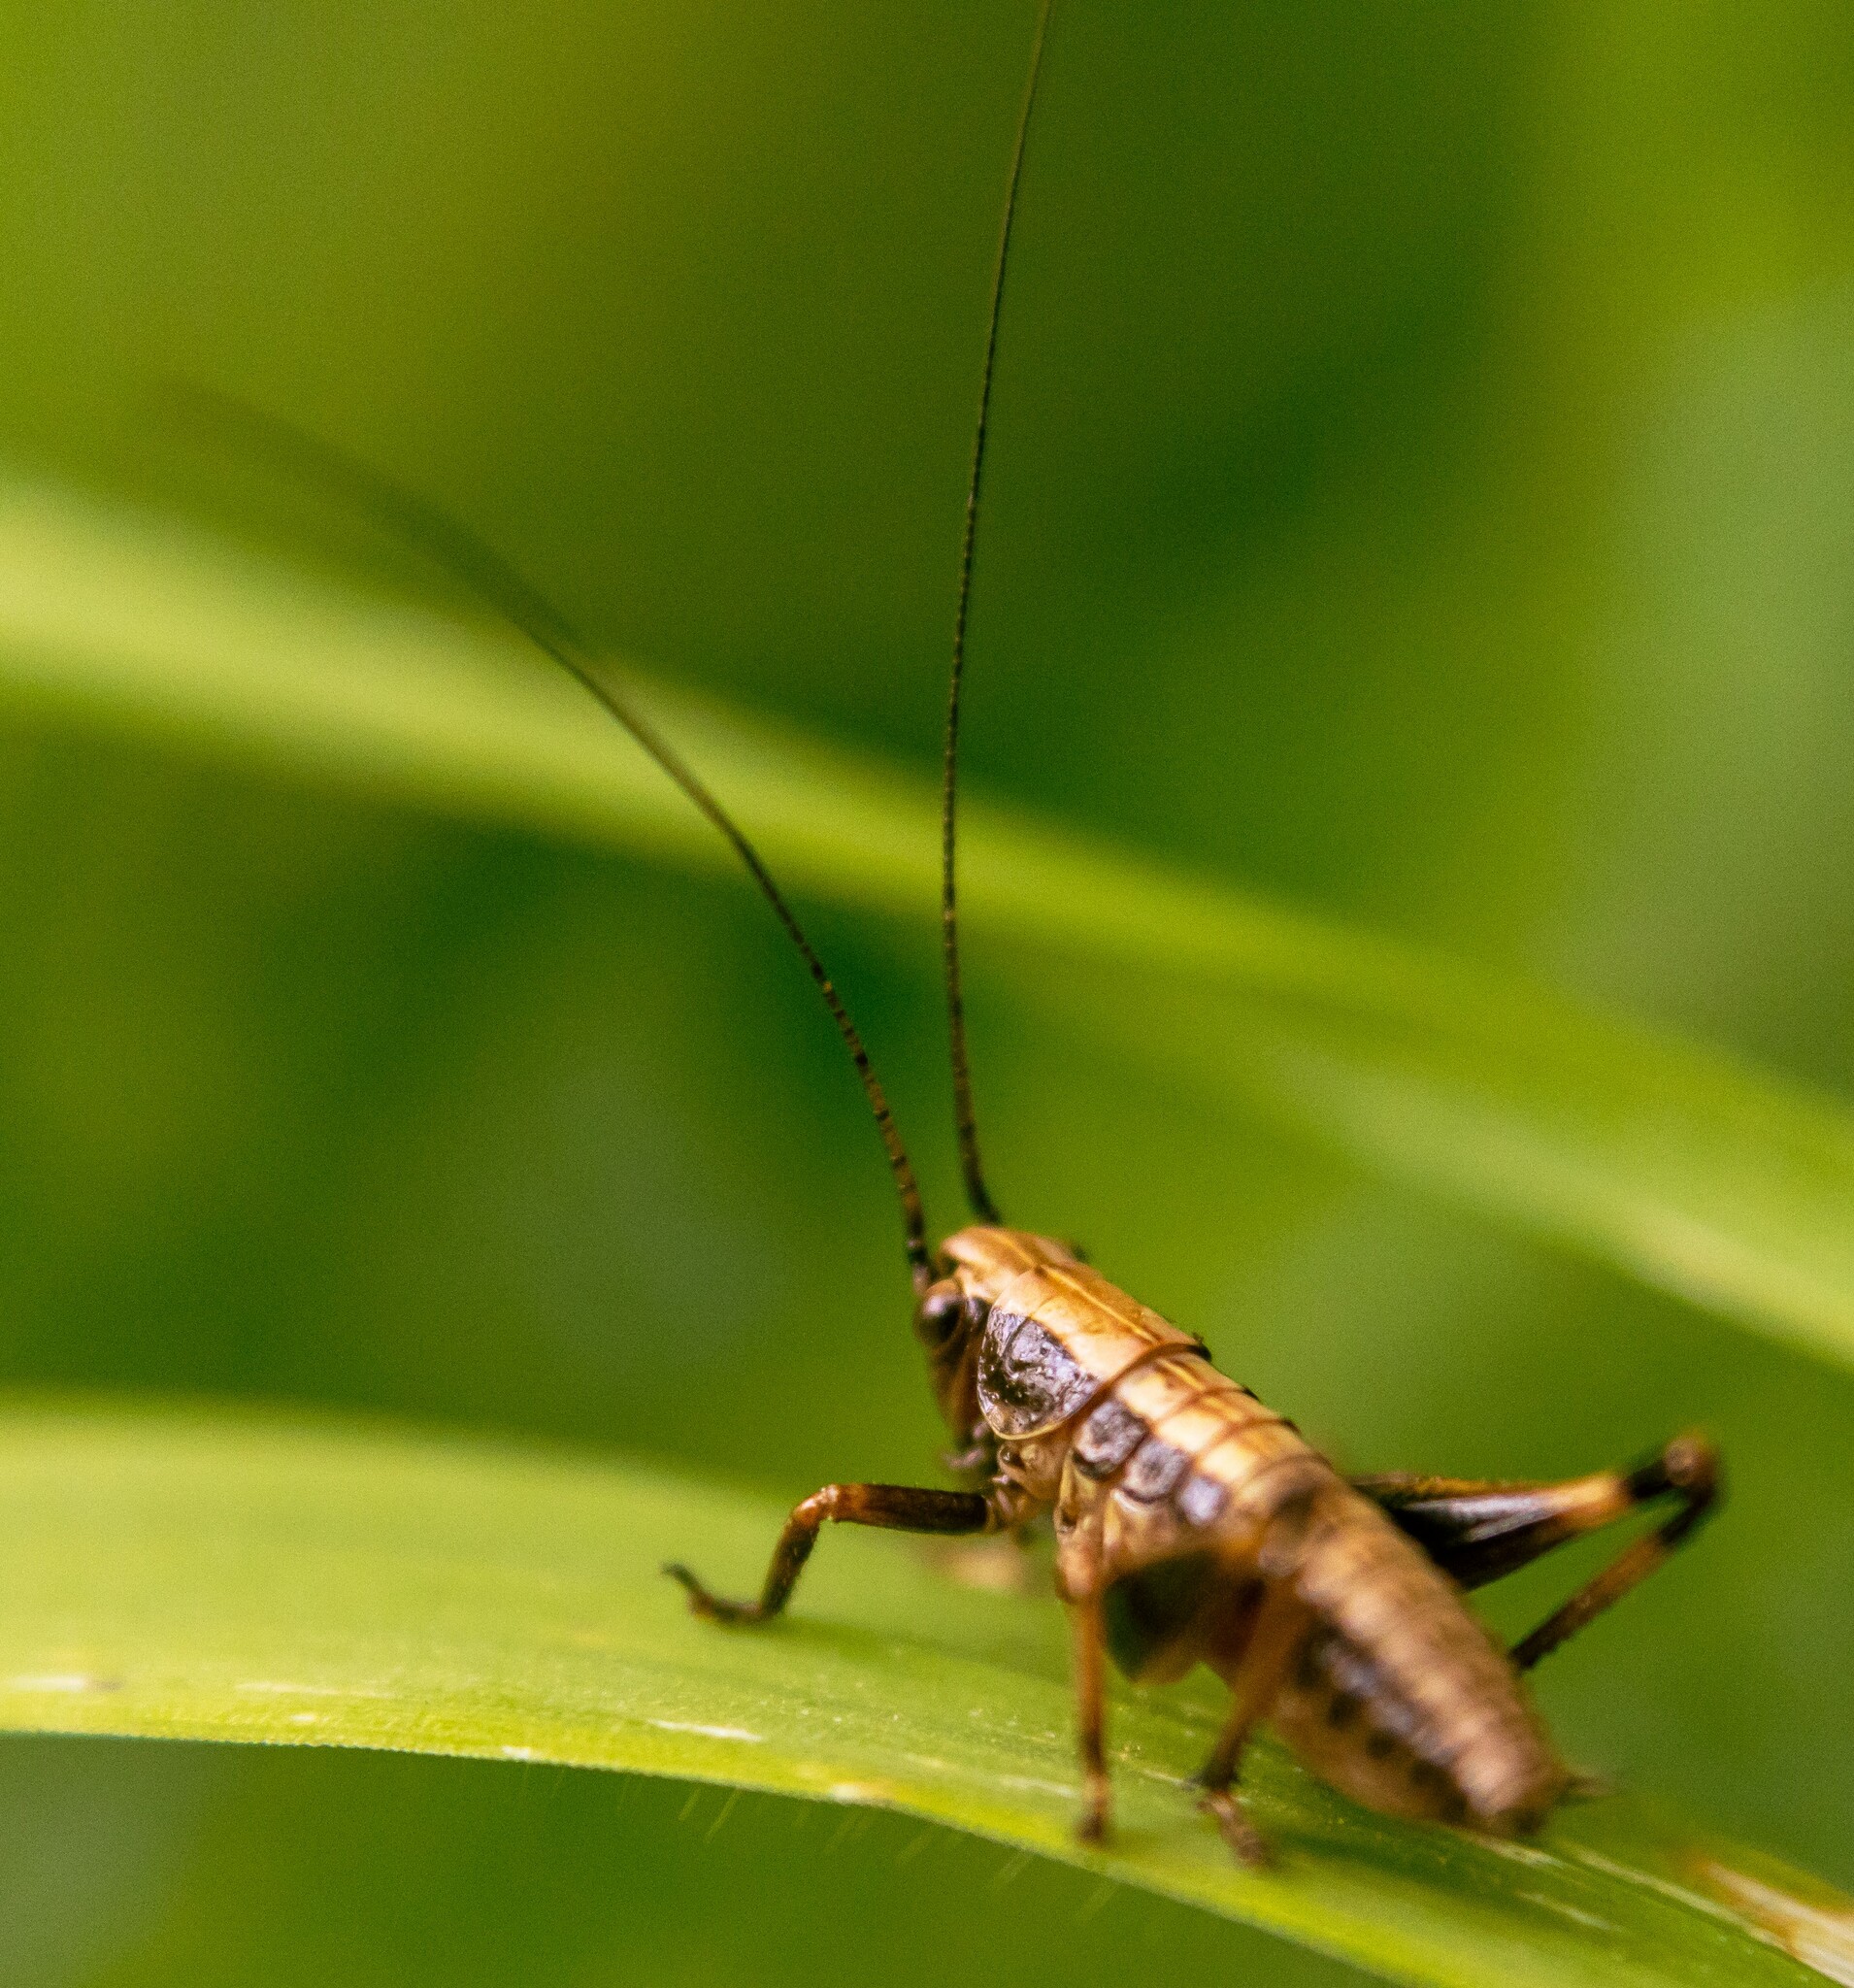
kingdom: Animalia
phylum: Arthropoda
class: Insecta
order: Orthoptera
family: Tettigoniidae
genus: Pholidoptera
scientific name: Pholidoptera griseoaptera
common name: Dark bush-cricket
